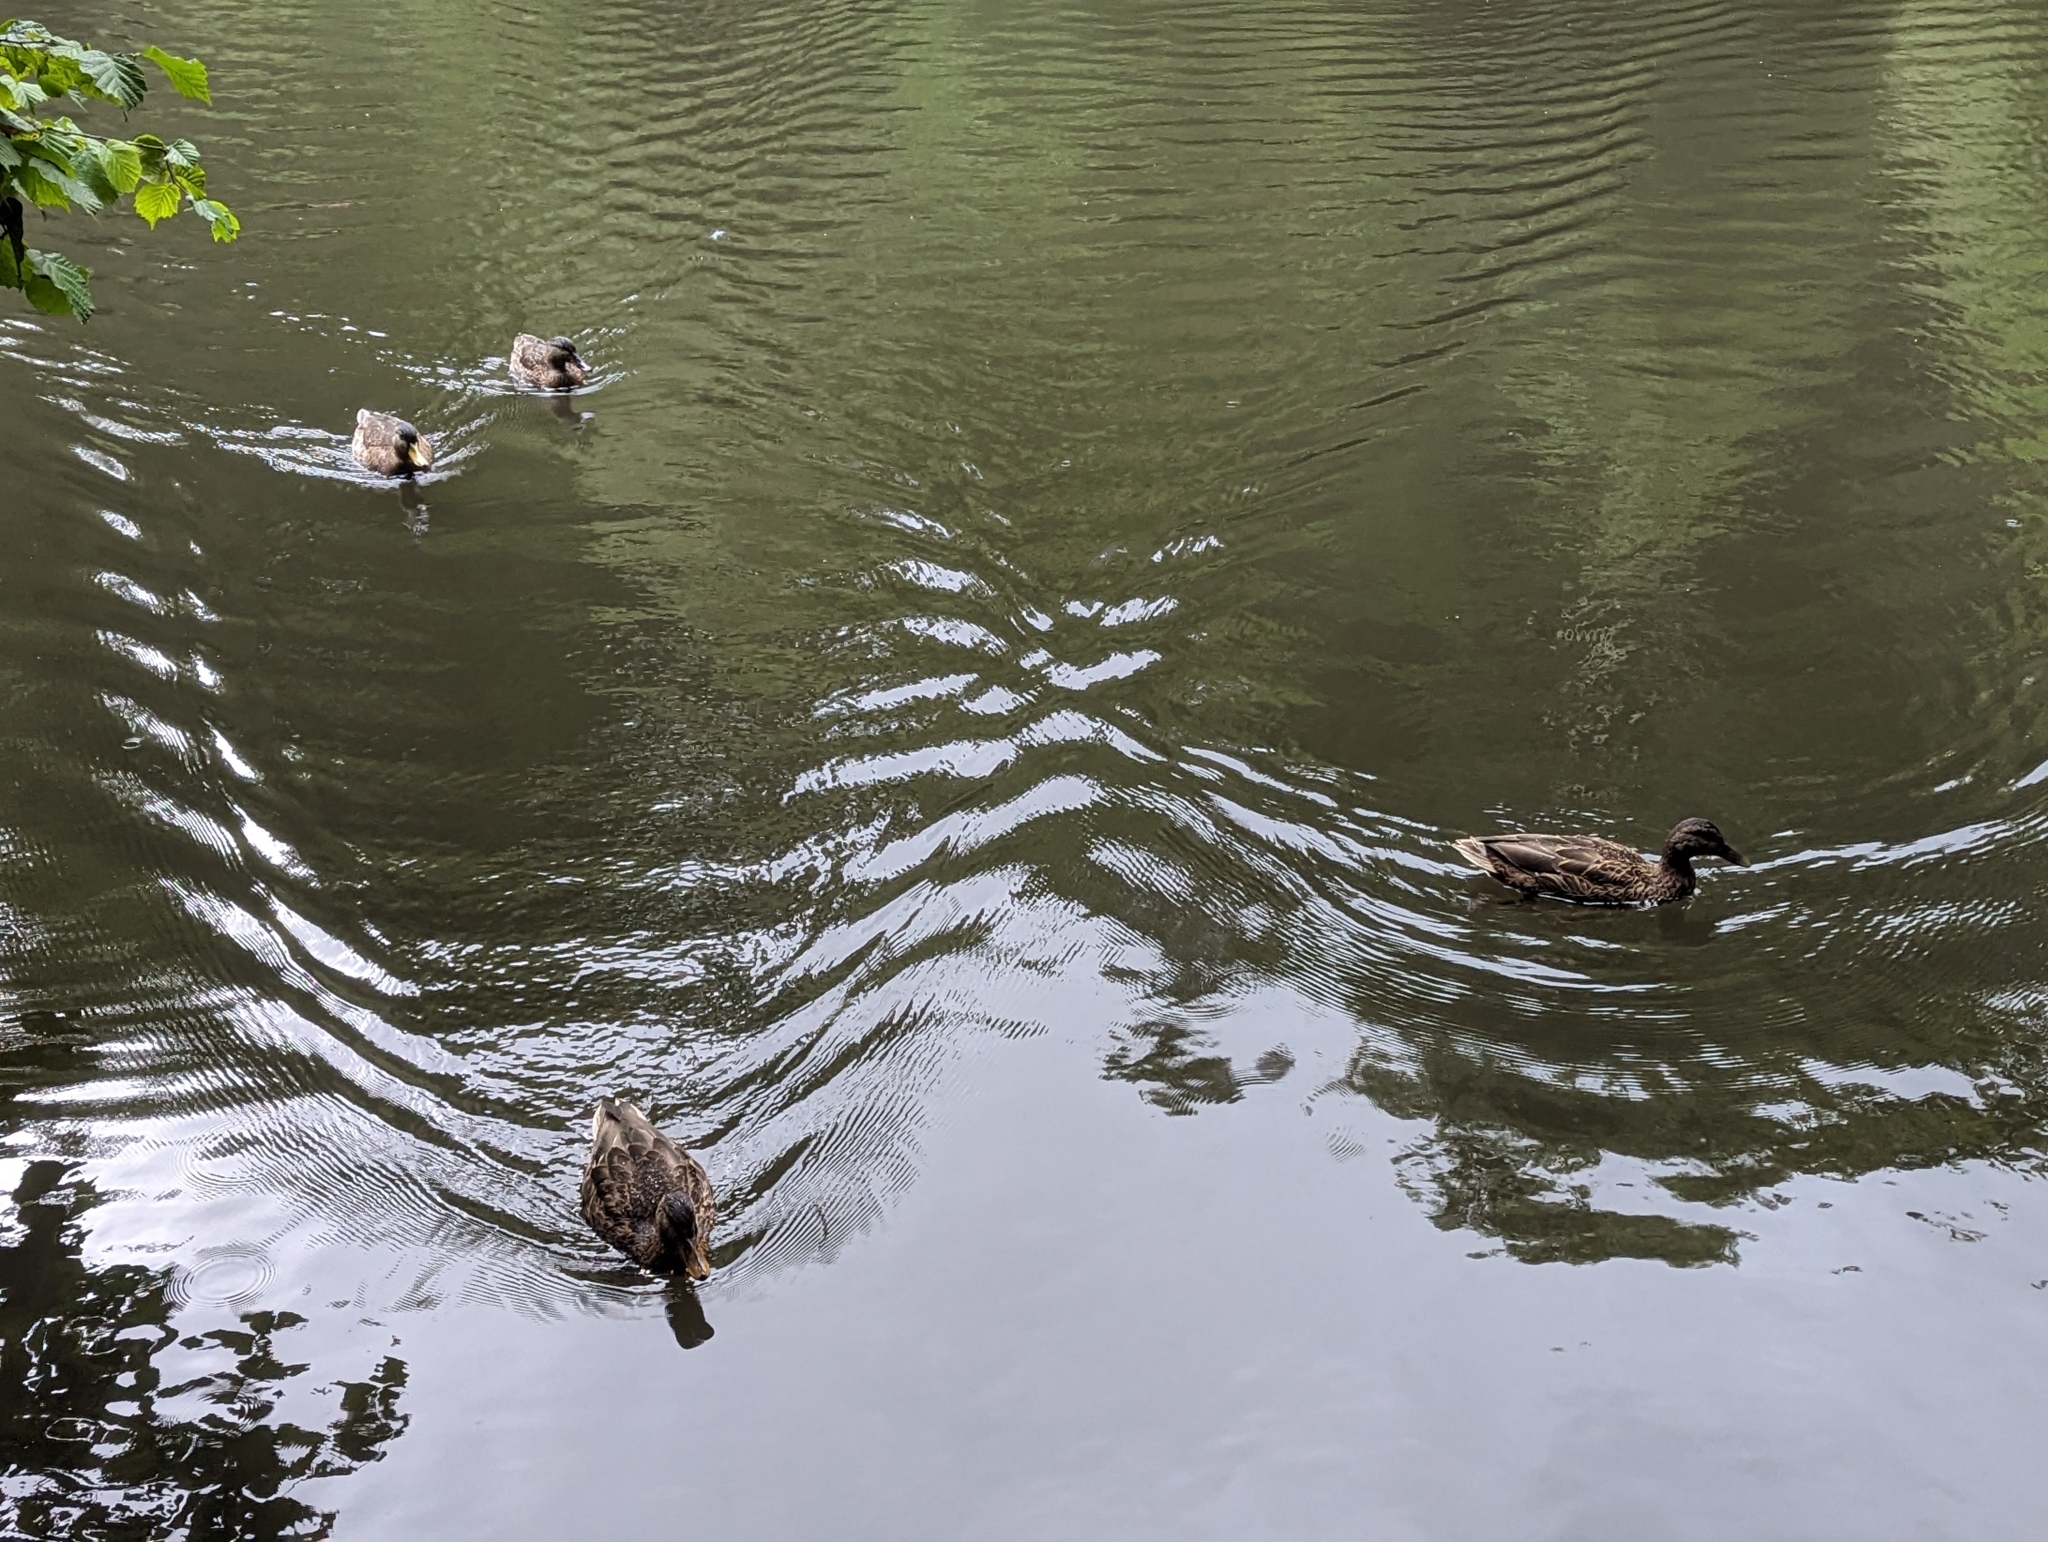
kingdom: Animalia
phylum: Chordata
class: Aves
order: Anseriformes
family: Anatidae
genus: Anas
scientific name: Anas platyrhynchos
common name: Mallard
